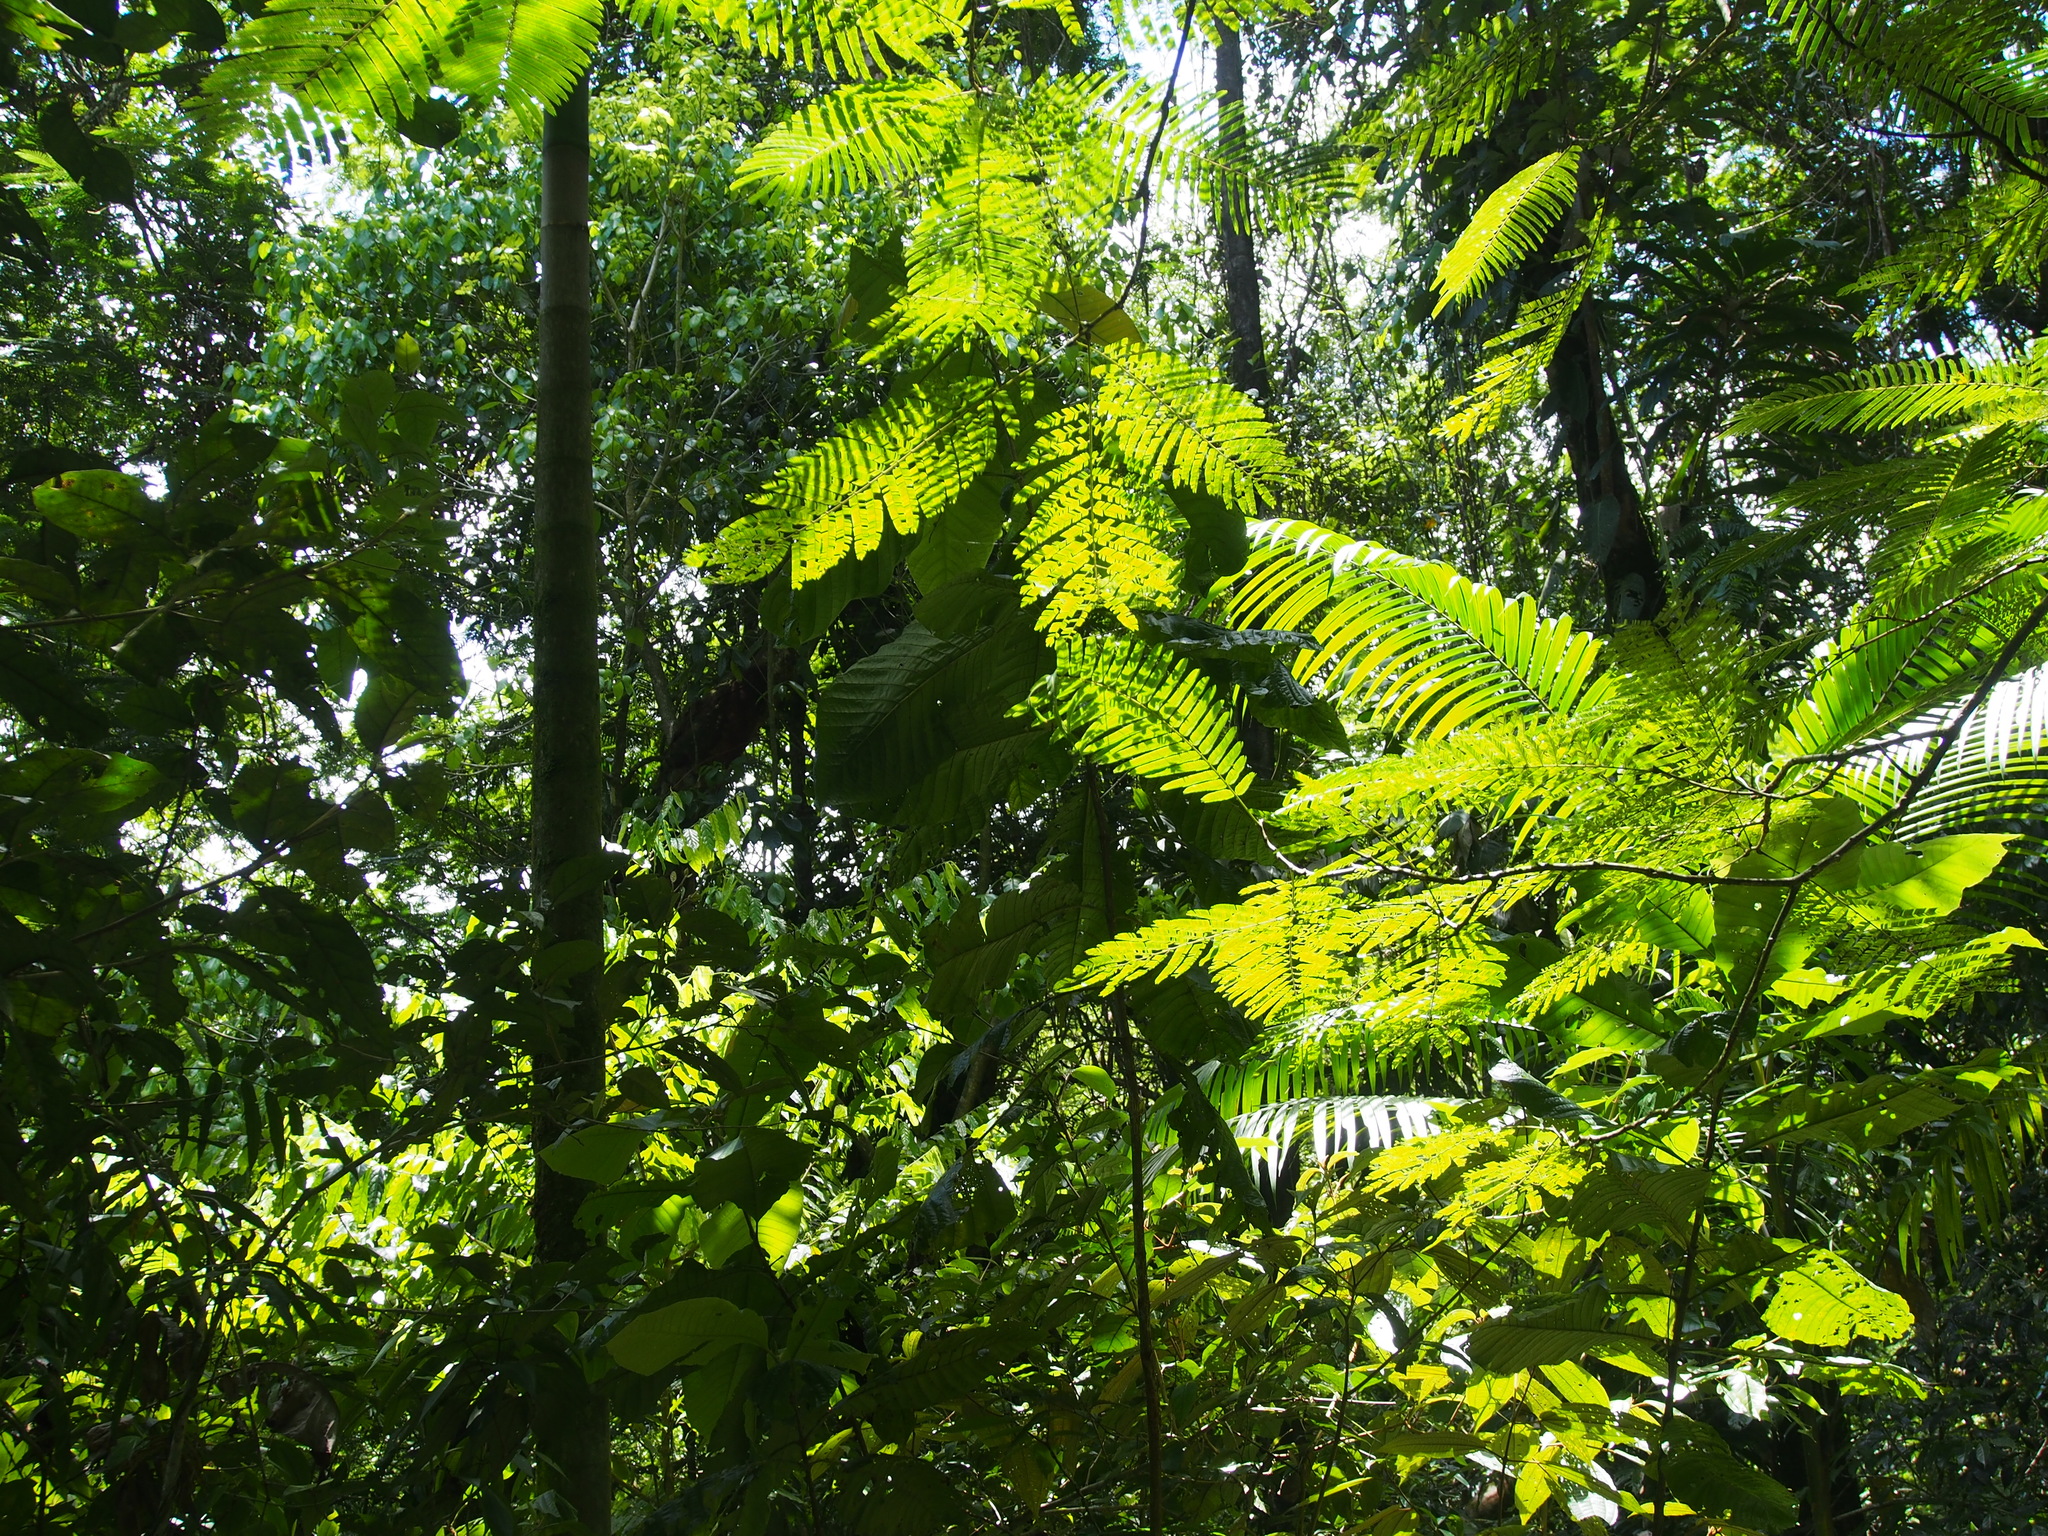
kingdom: Plantae
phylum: Tracheophyta
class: Magnoliopsida
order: Fabales
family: Fabaceae
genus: Pentaclethra
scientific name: Pentaclethra macroloba
